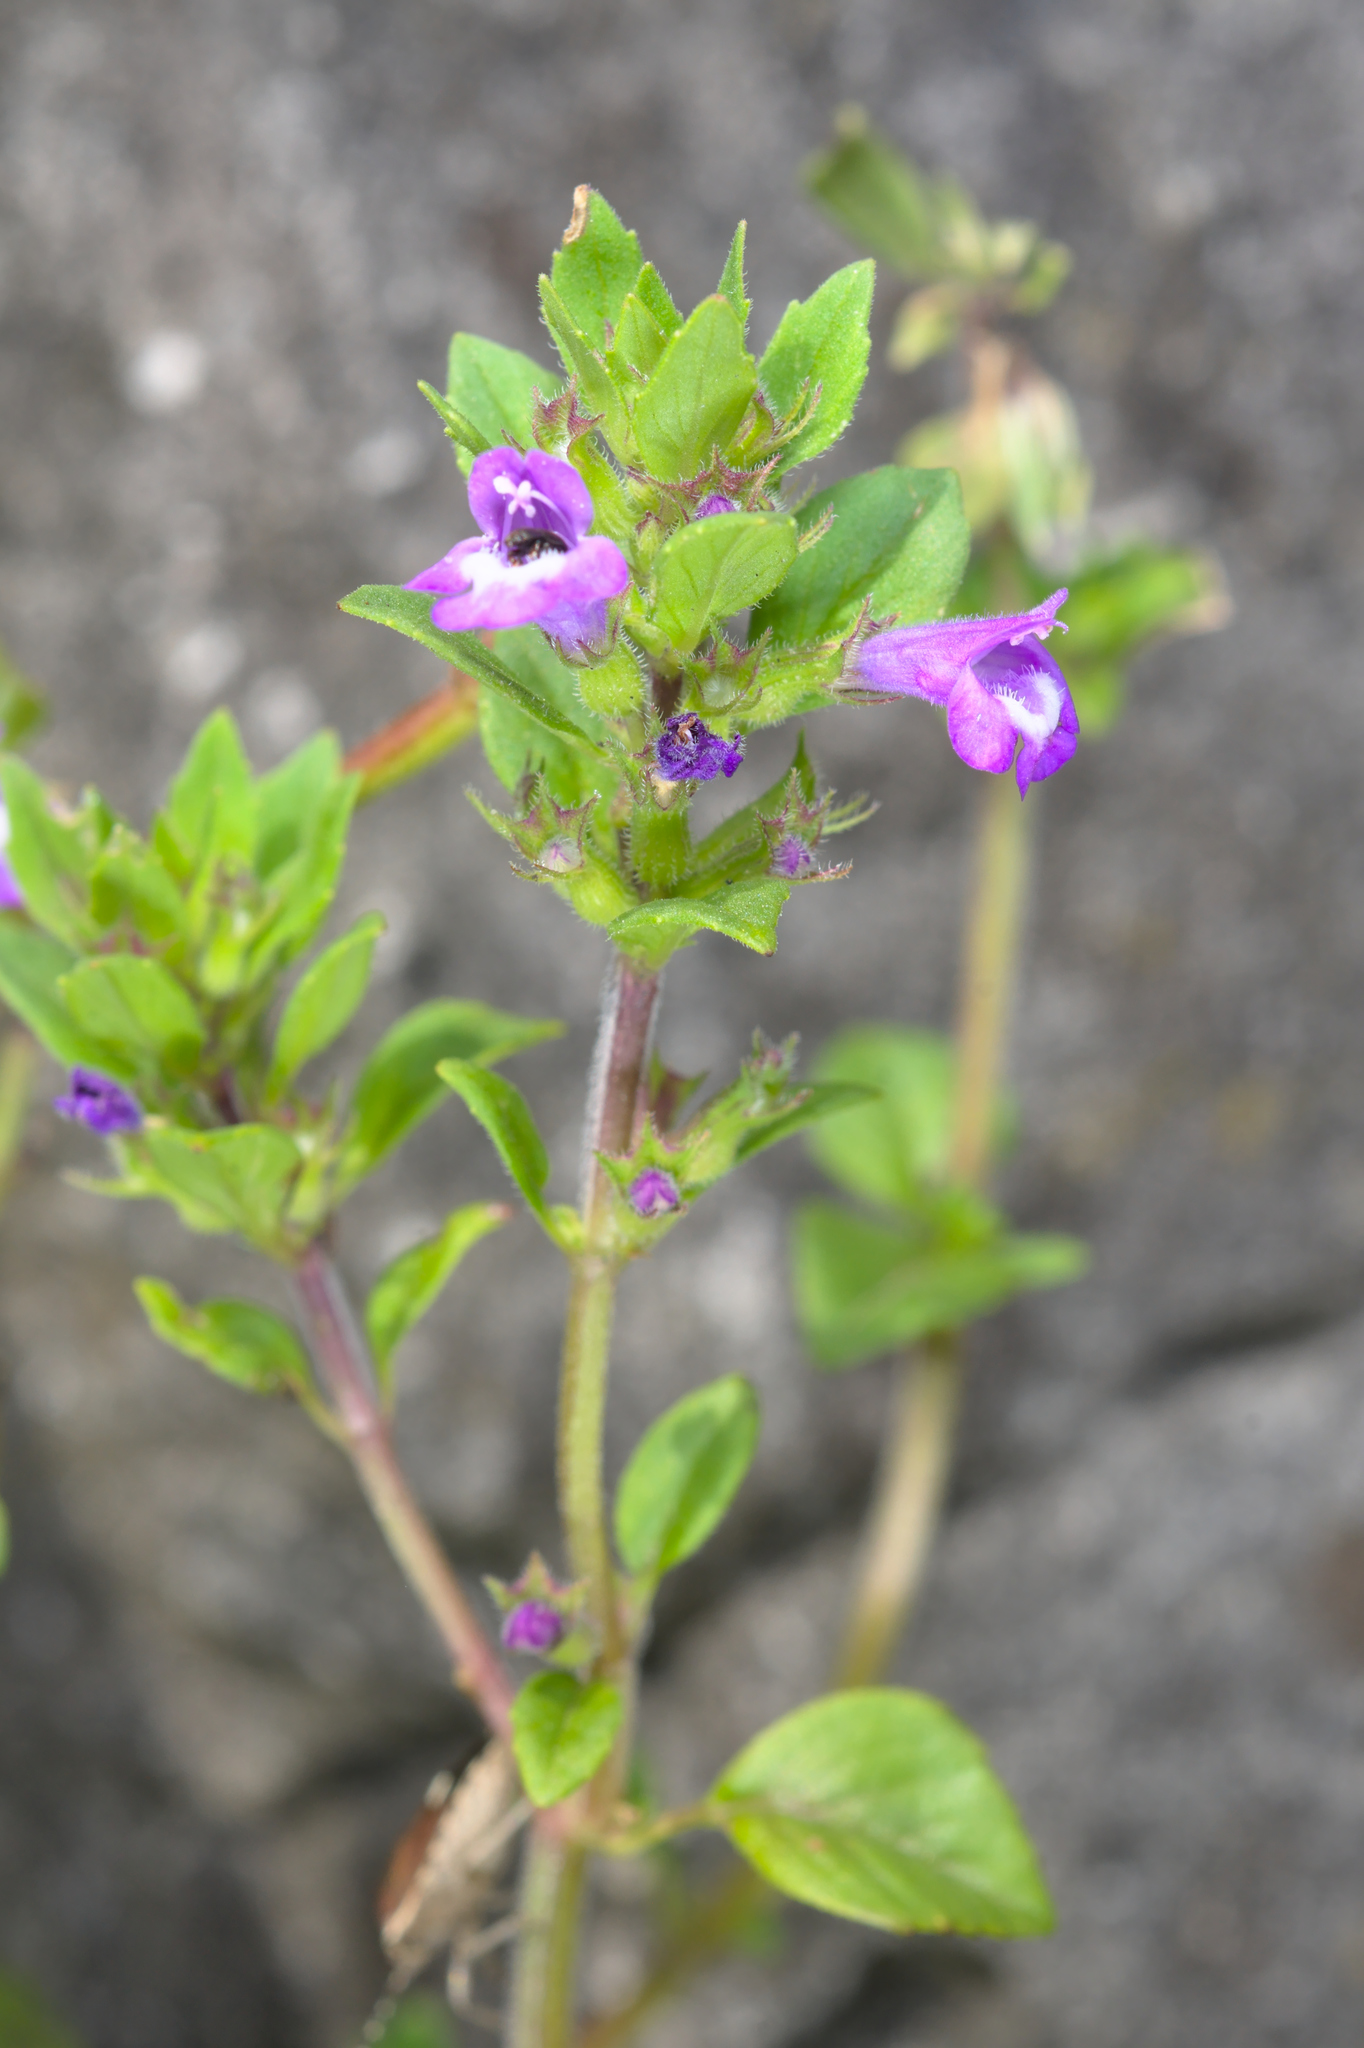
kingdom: Plantae
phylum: Tracheophyta
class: Magnoliopsida
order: Lamiales
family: Lamiaceae
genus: Clinopodium
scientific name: Clinopodium acinos
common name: Basil thyme
